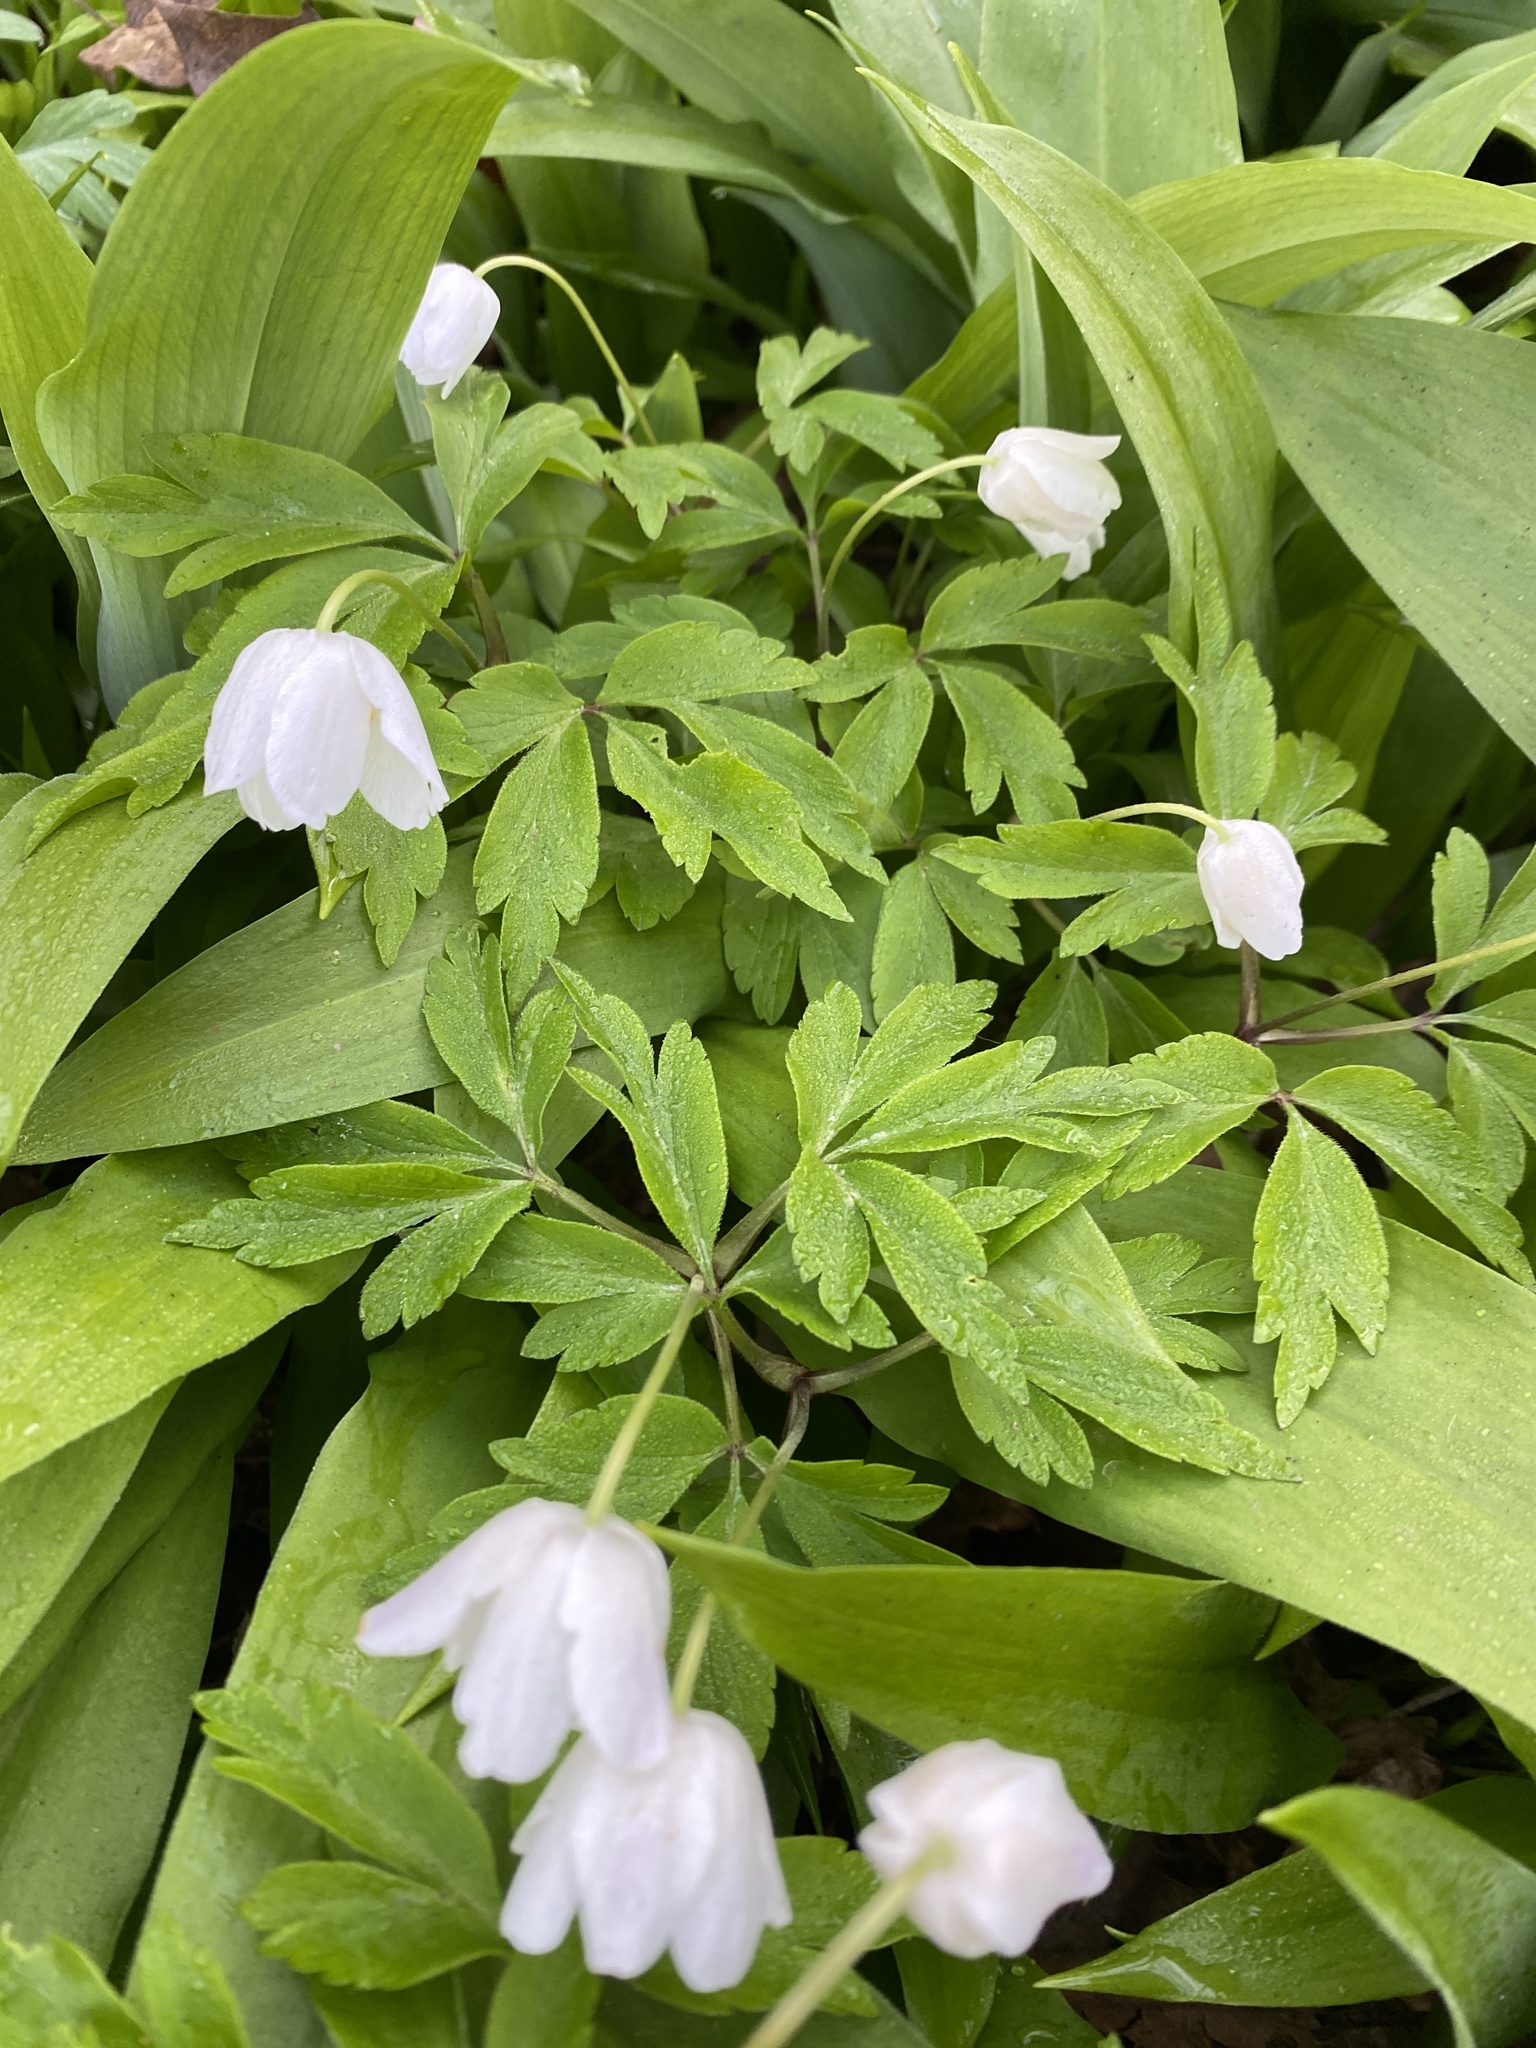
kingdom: Plantae
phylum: Tracheophyta
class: Magnoliopsida
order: Ranunculales
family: Ranunculaceae
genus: Anemone
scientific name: Anemone nemorosa
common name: Wood anemone
